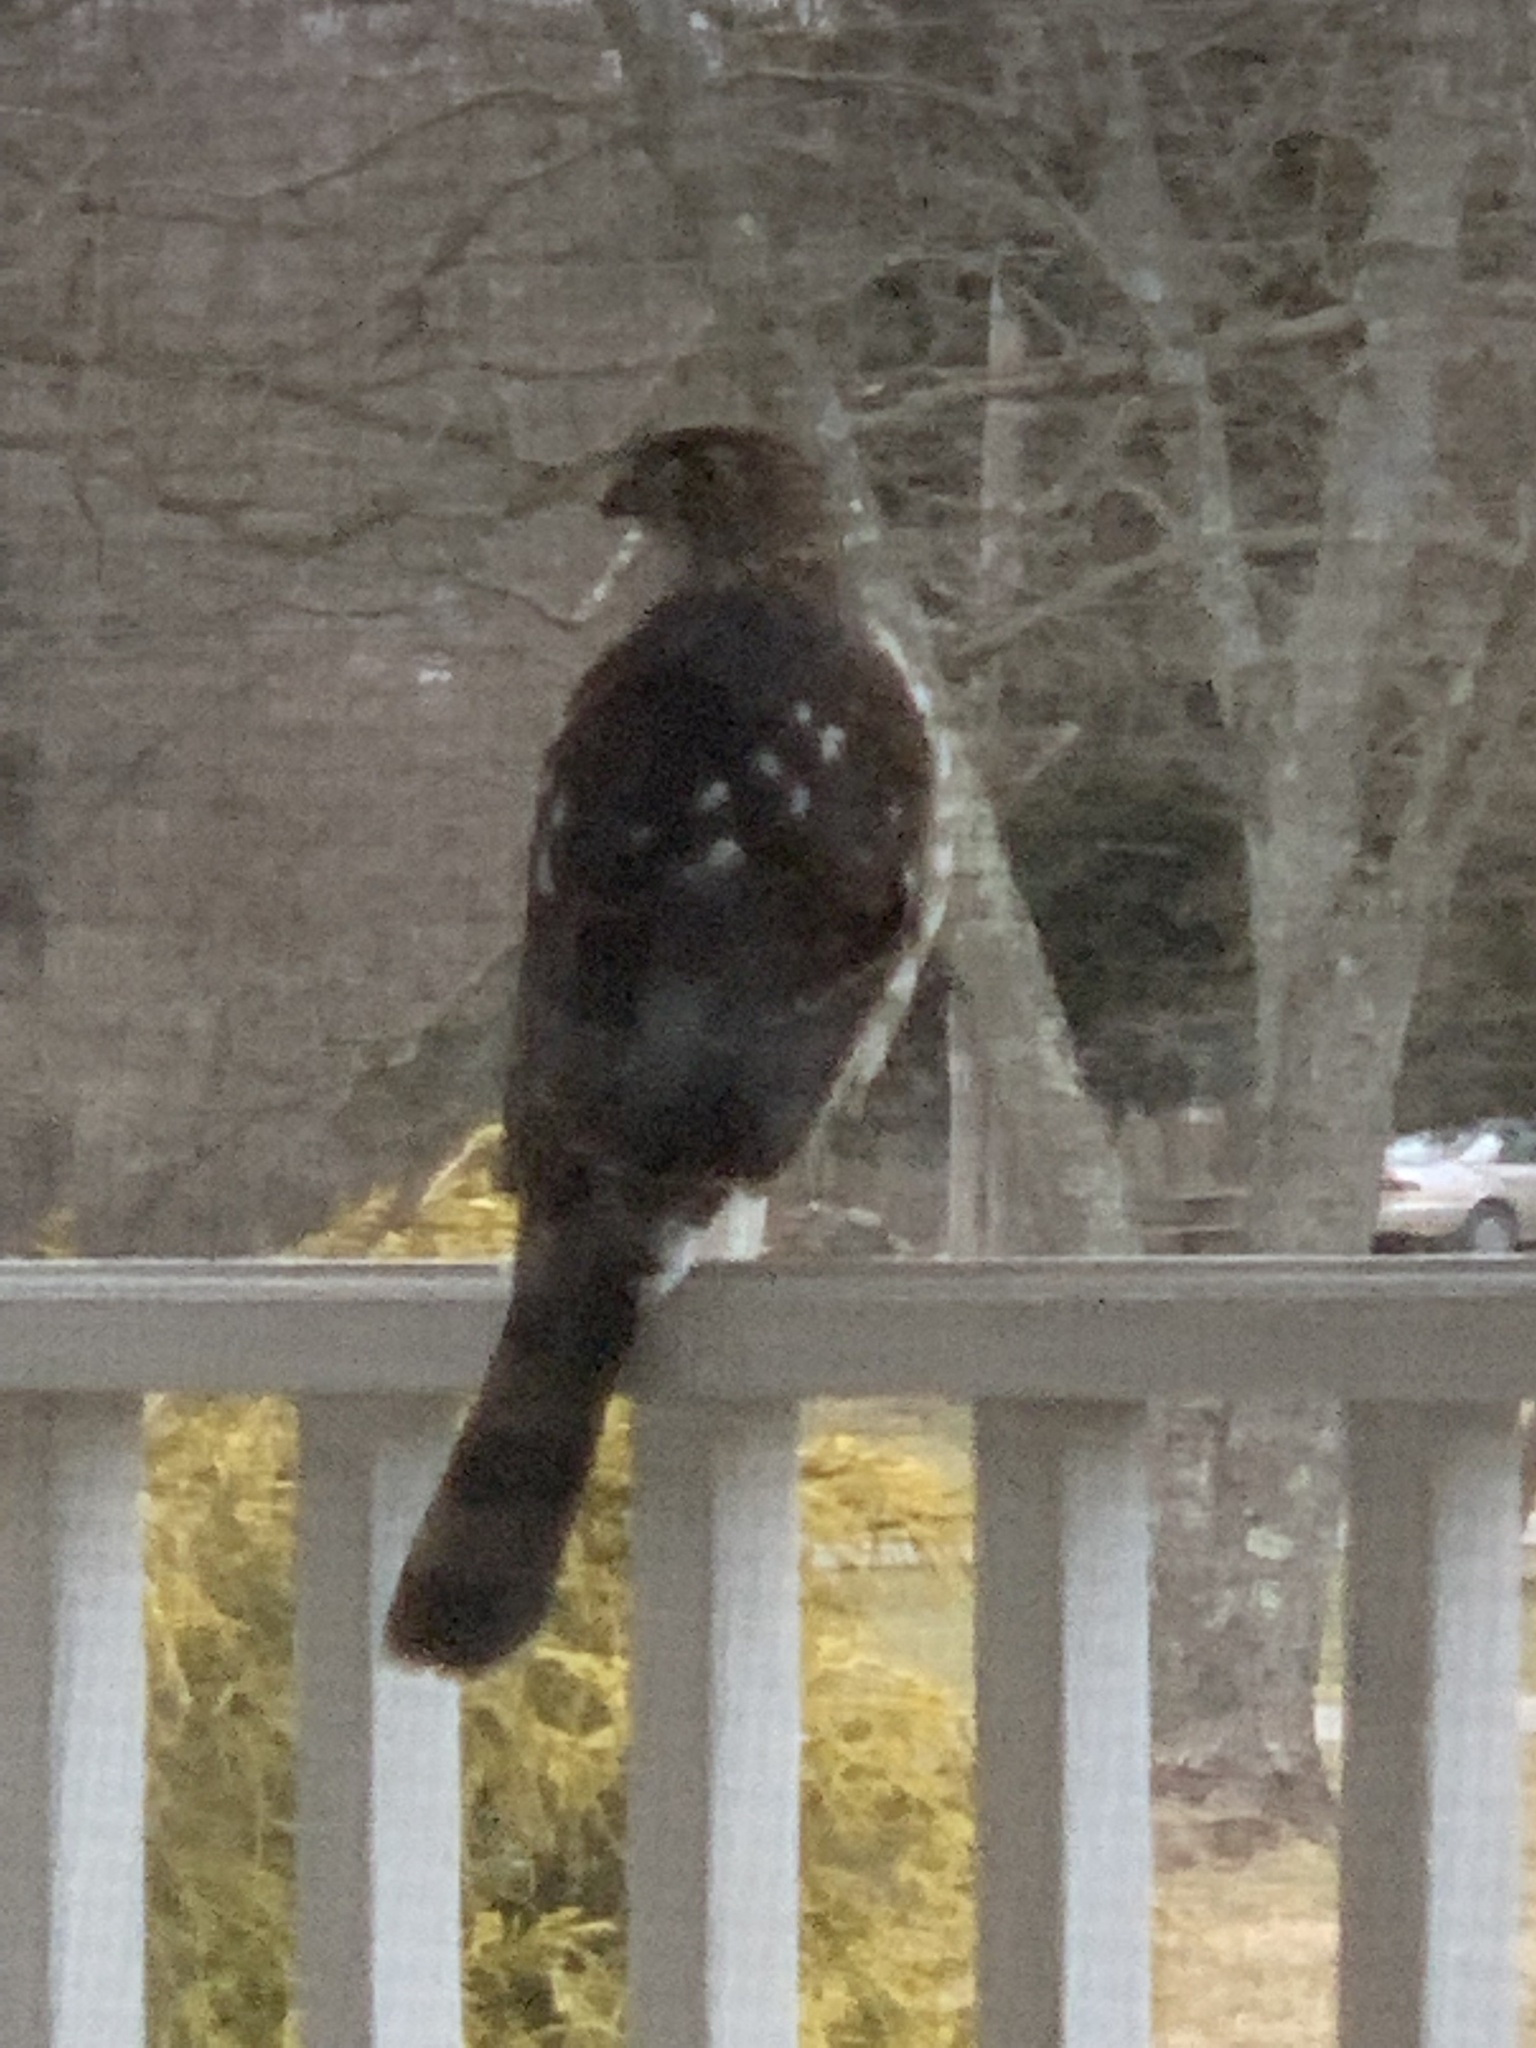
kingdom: Animalia
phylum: Chordata
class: Aves
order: Accipitriformes
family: Accipitridae
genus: Accipiter
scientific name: Accipiter cooperii
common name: Cooper's hawk
